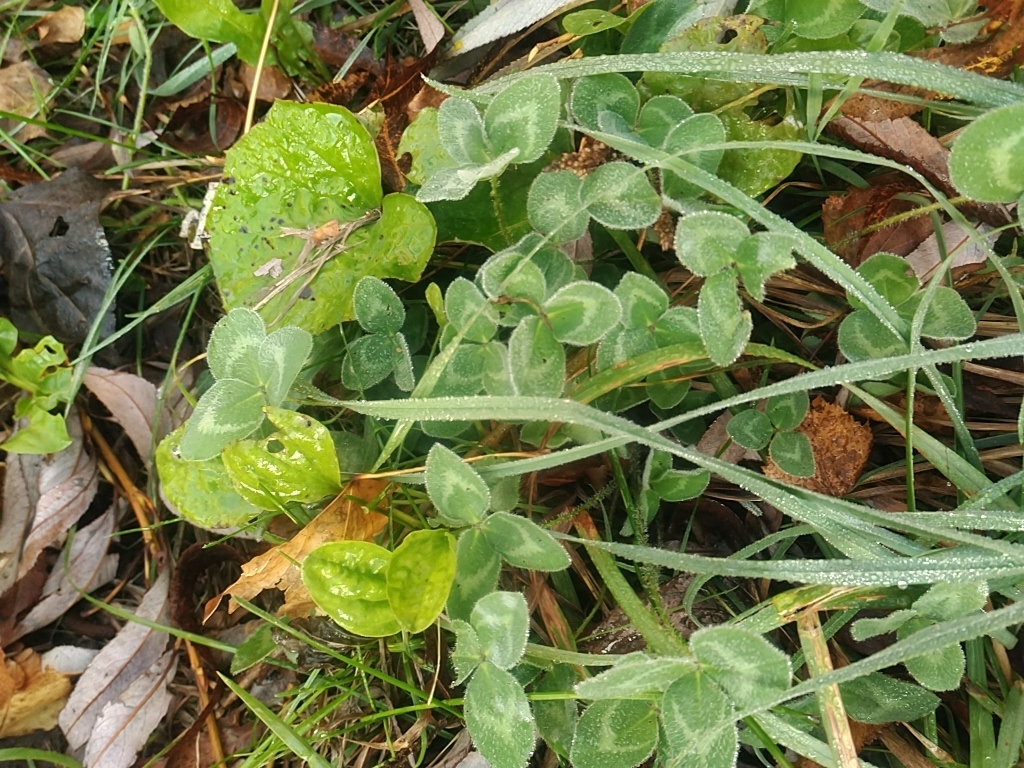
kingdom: Plantae
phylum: Tracheophyta
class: Magnoliopsida
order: Fabales
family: Fabaceae
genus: Trifolium
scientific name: Trifolium pratense
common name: Red clover
